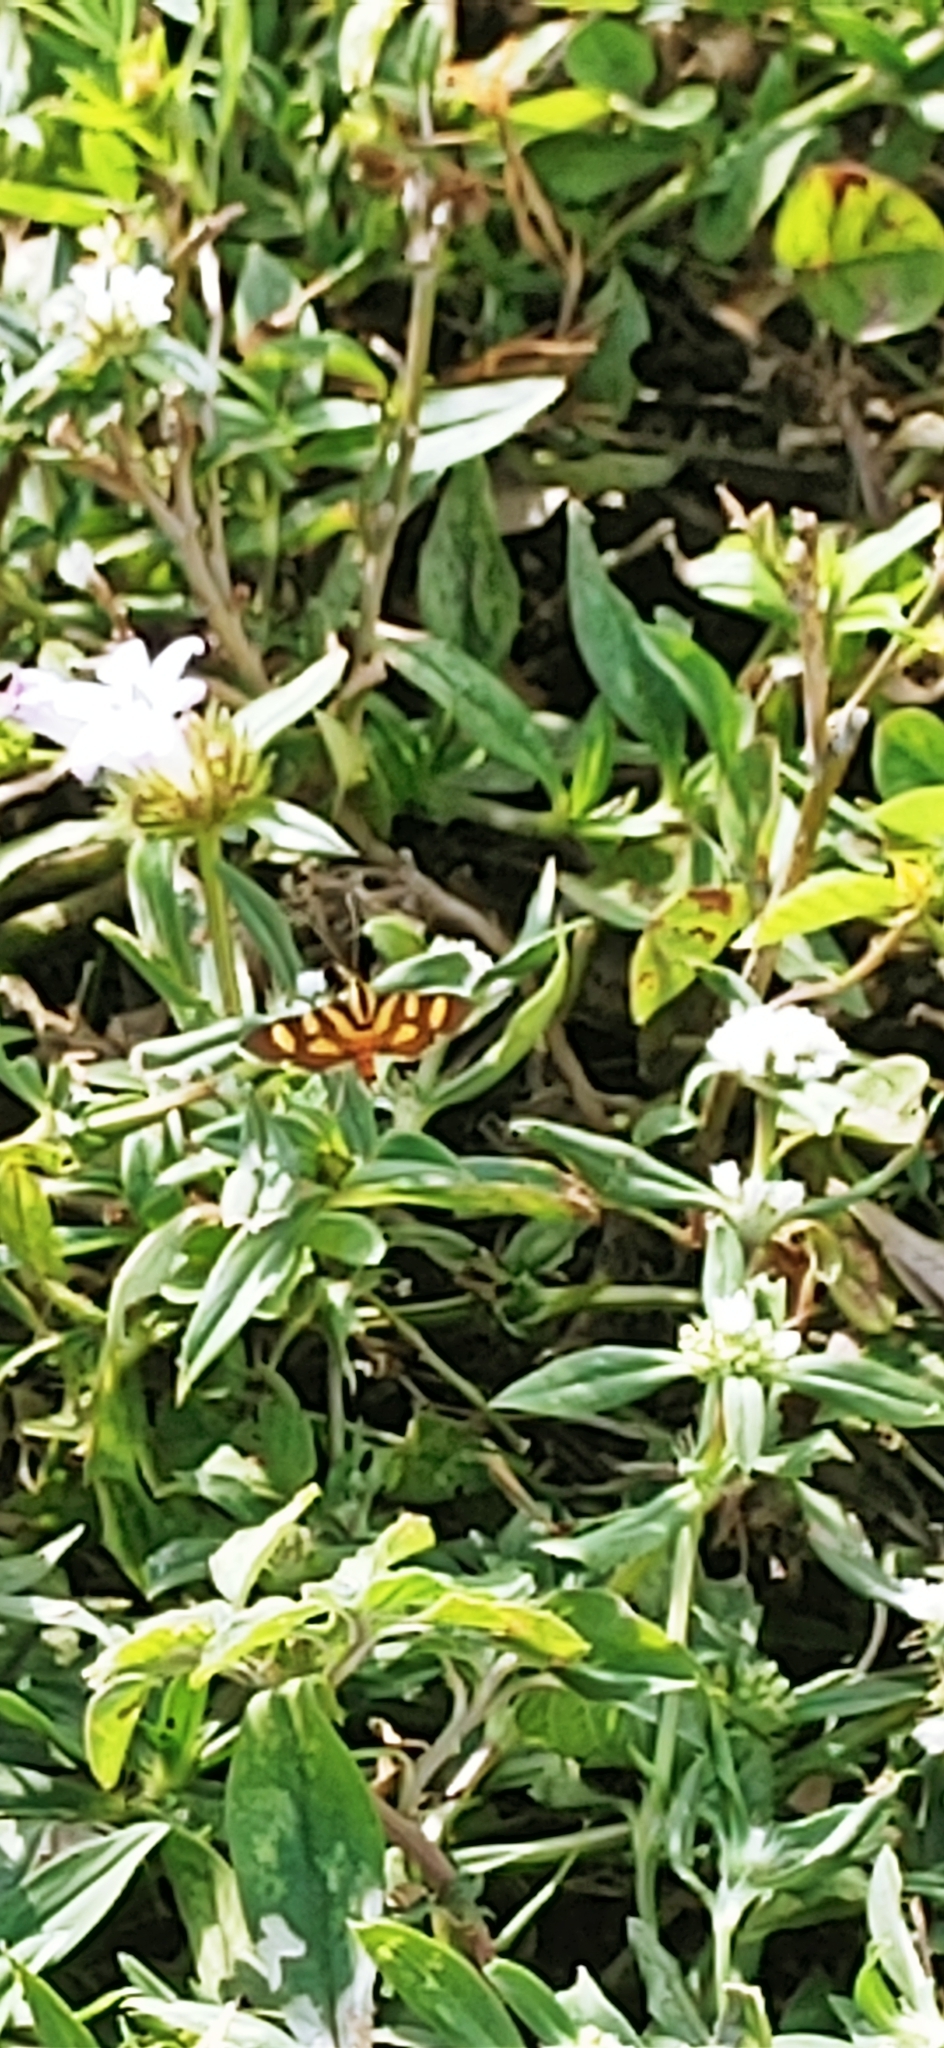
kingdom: Animalia
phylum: Arthropoda
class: Insecta
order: Lepidoptera
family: Crambidae
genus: Syngamia
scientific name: Syngamia florella
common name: Orange-spotted flower moth
